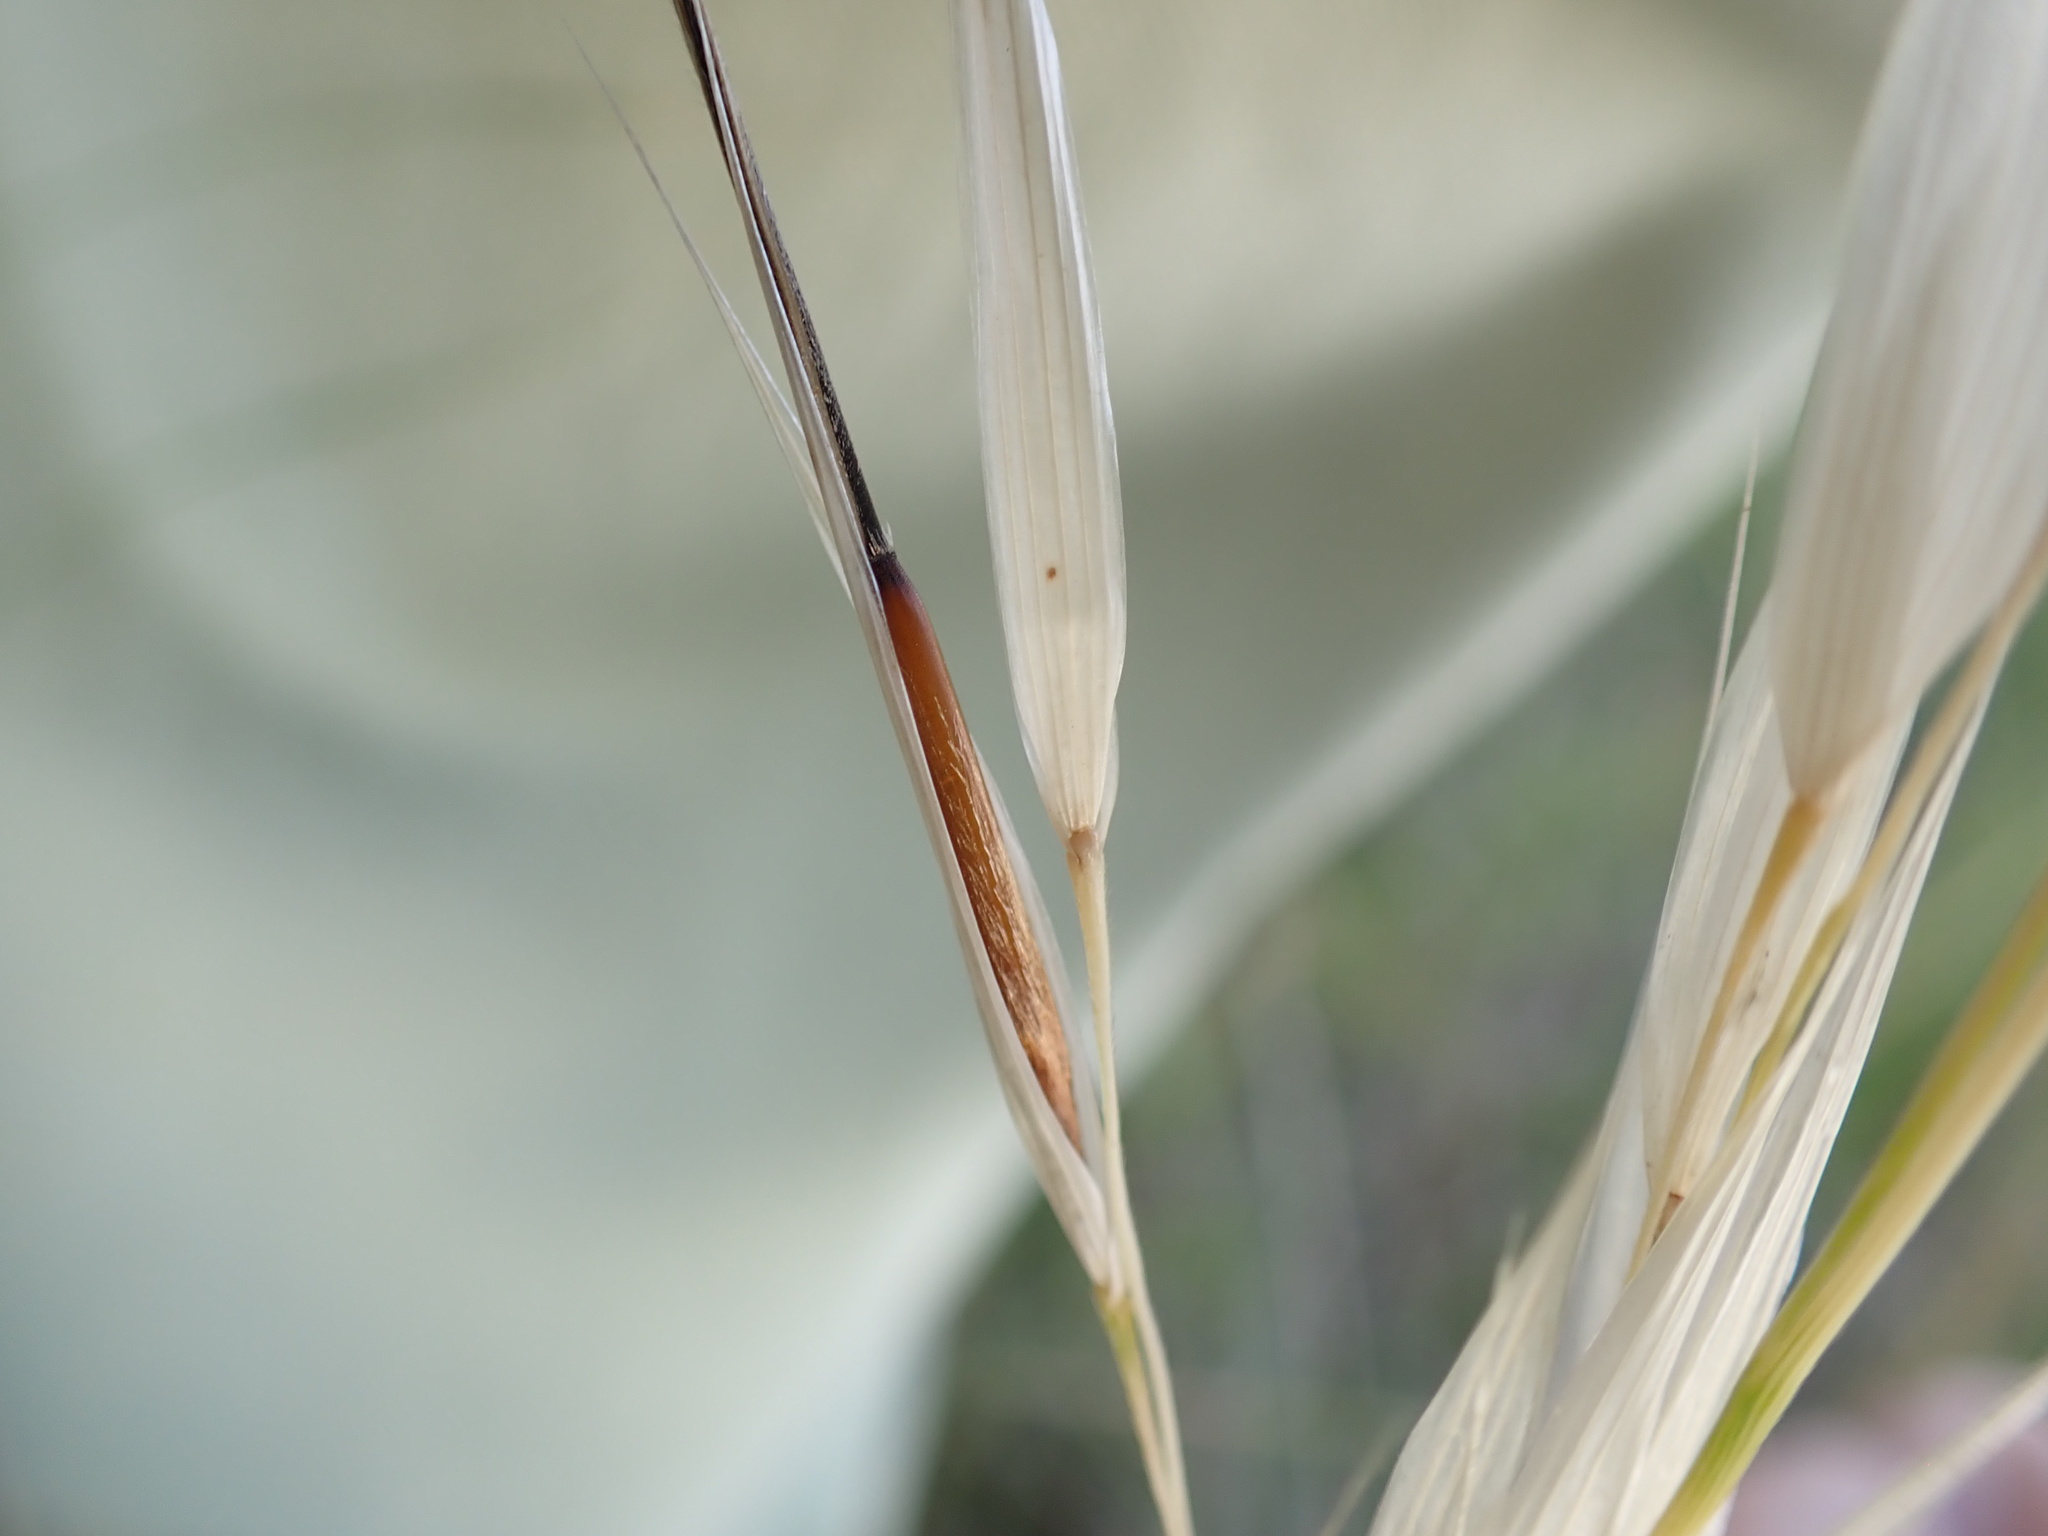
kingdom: Plantae
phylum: Tracheophyta
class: Liliopsida
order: Poales
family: Poaceae
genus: Hesperostipa
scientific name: Hesperostipa spartea
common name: Porcupine grass
